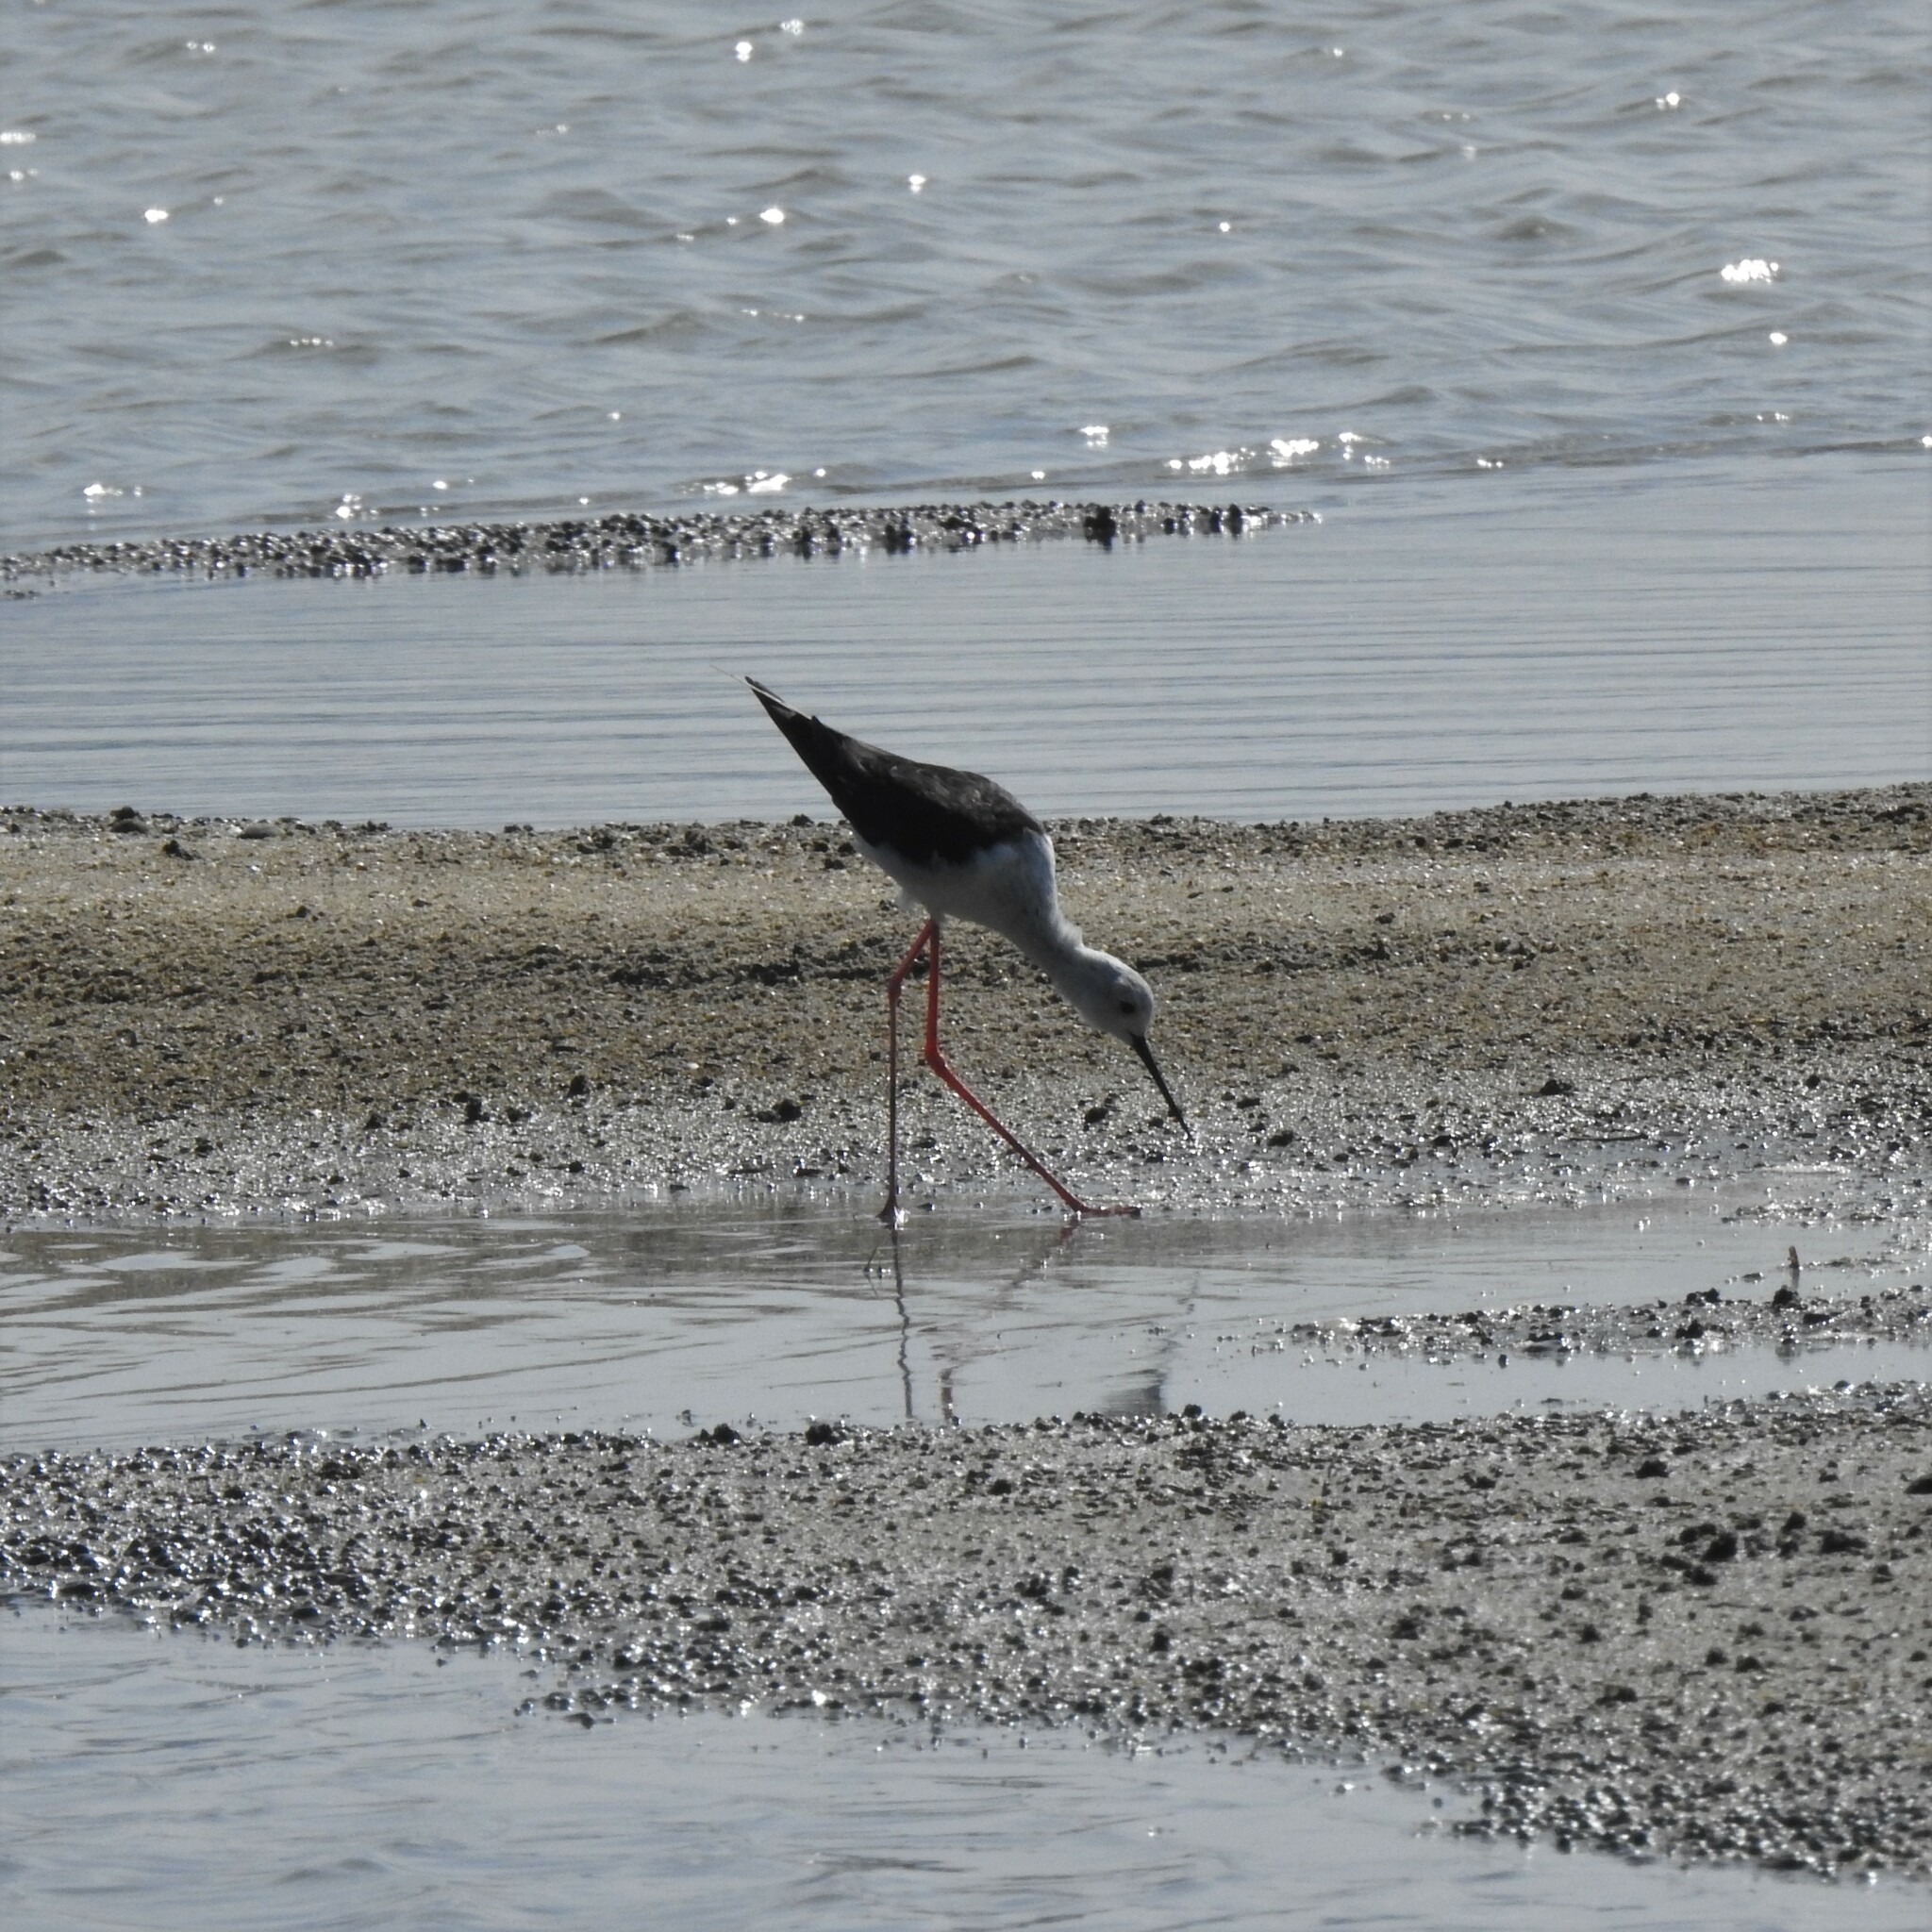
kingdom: Animalia
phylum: Chordata
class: Aves
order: Charadriiformes
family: Recurvirostridae
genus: Himantopus
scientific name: Himantopus himantopus
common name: Black-winged stilt
